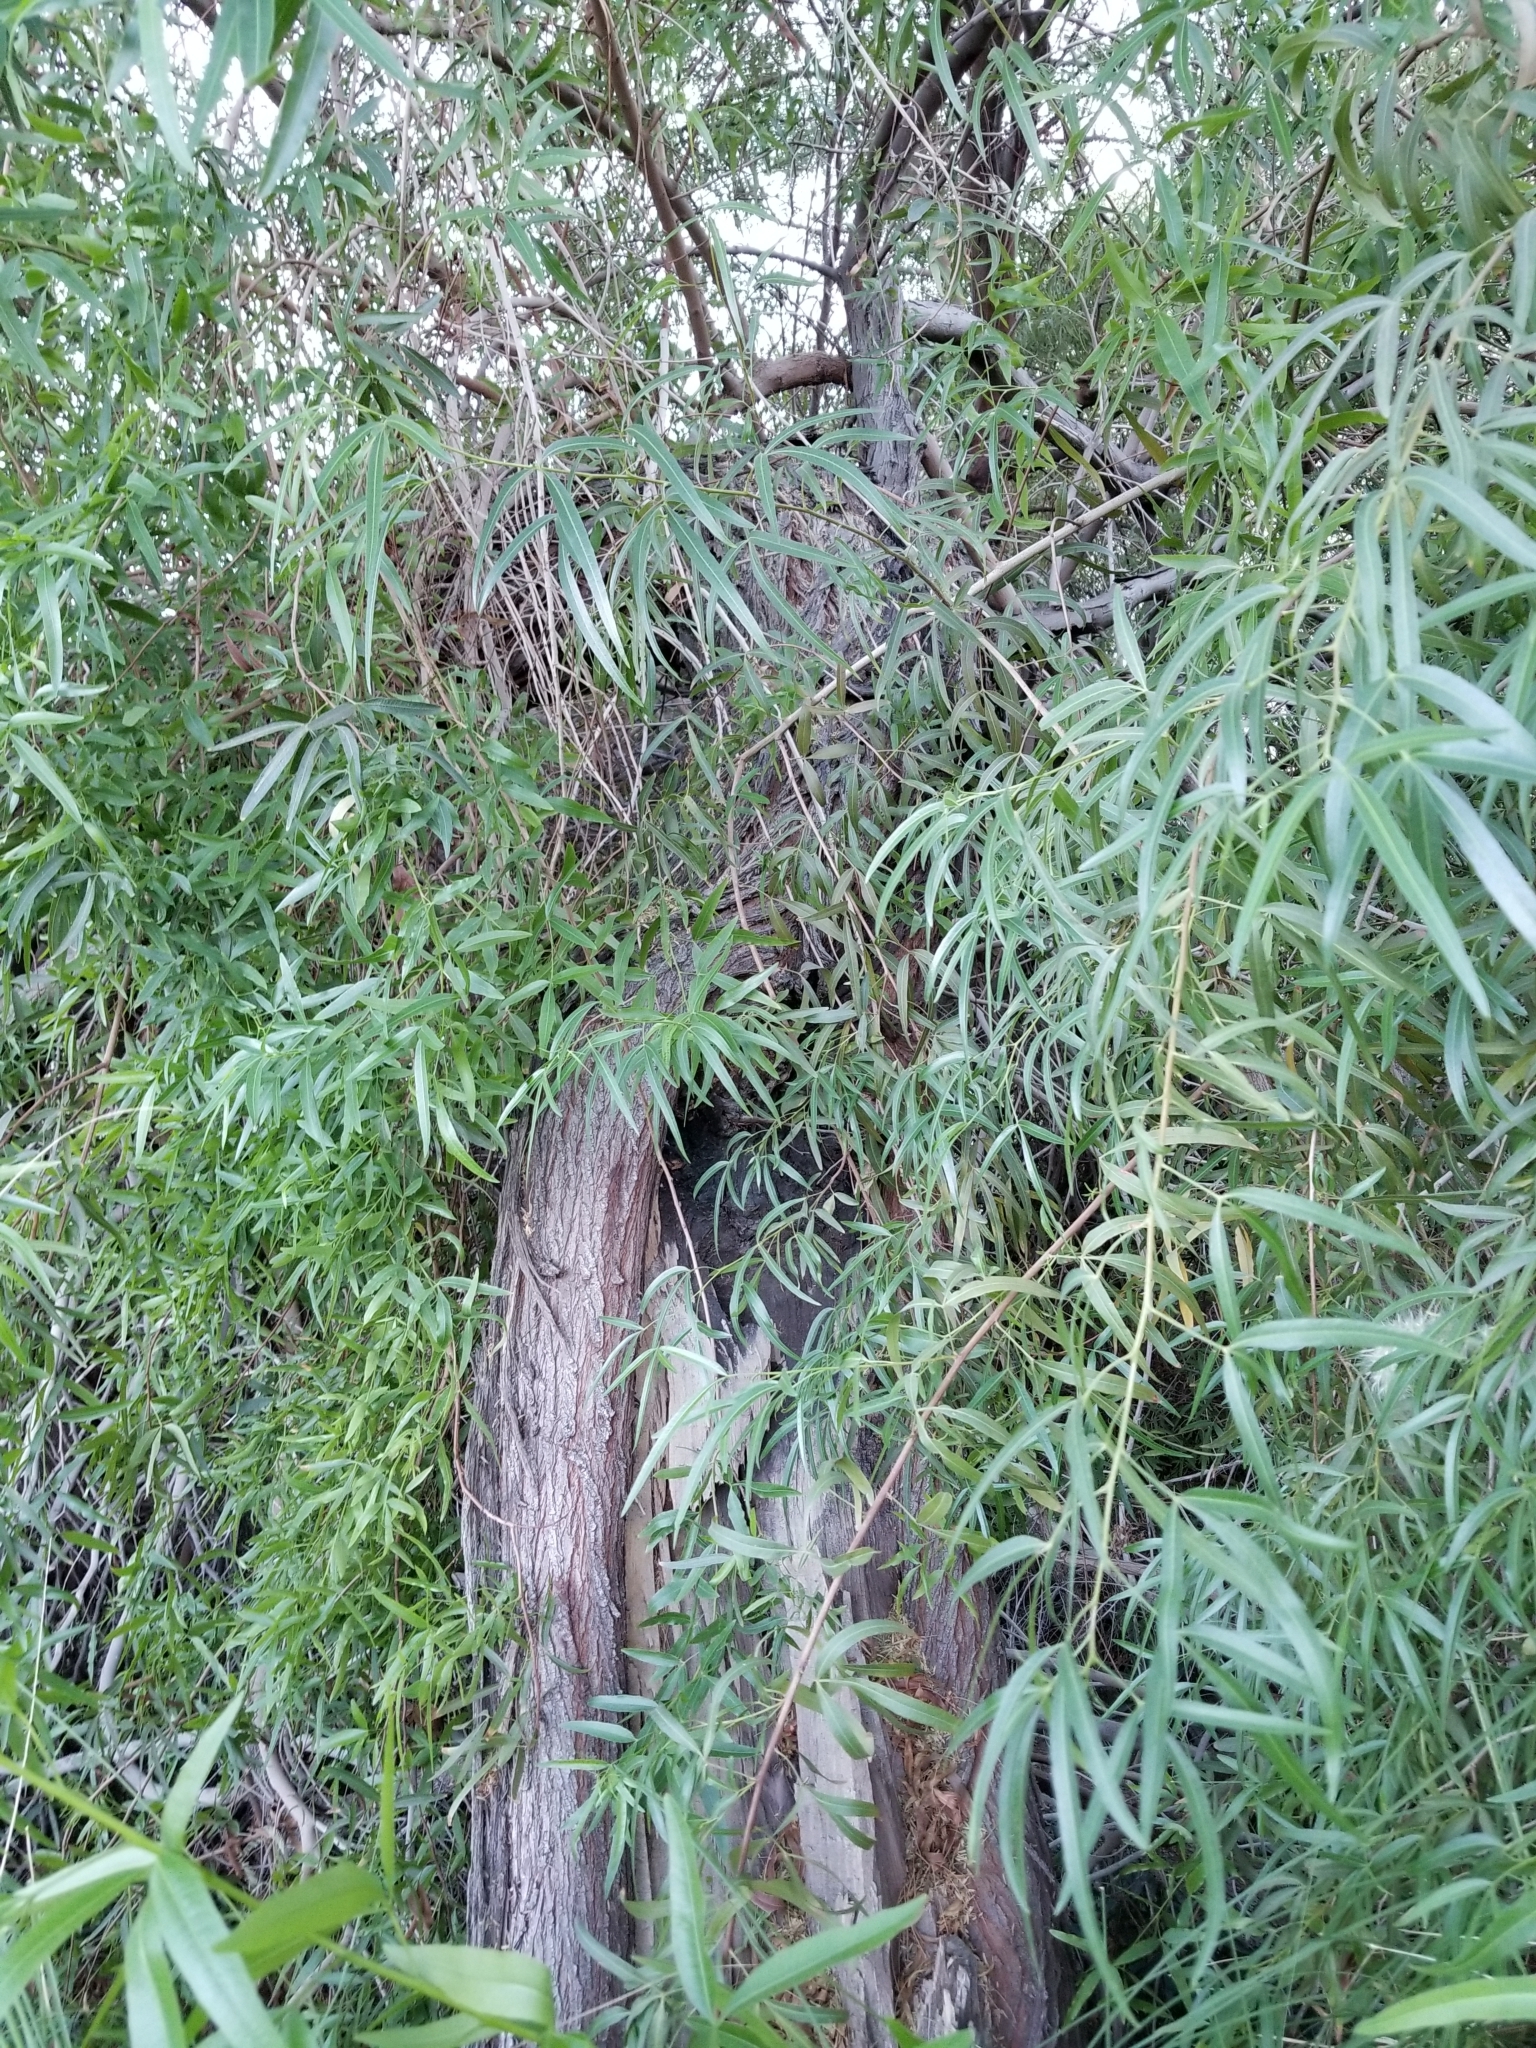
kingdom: Plantae
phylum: Tracheophyta
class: Magnoliopsida
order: Sapindales
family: Anacardiaceae
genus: Searsia
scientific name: Searsia lancea
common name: Cashew
